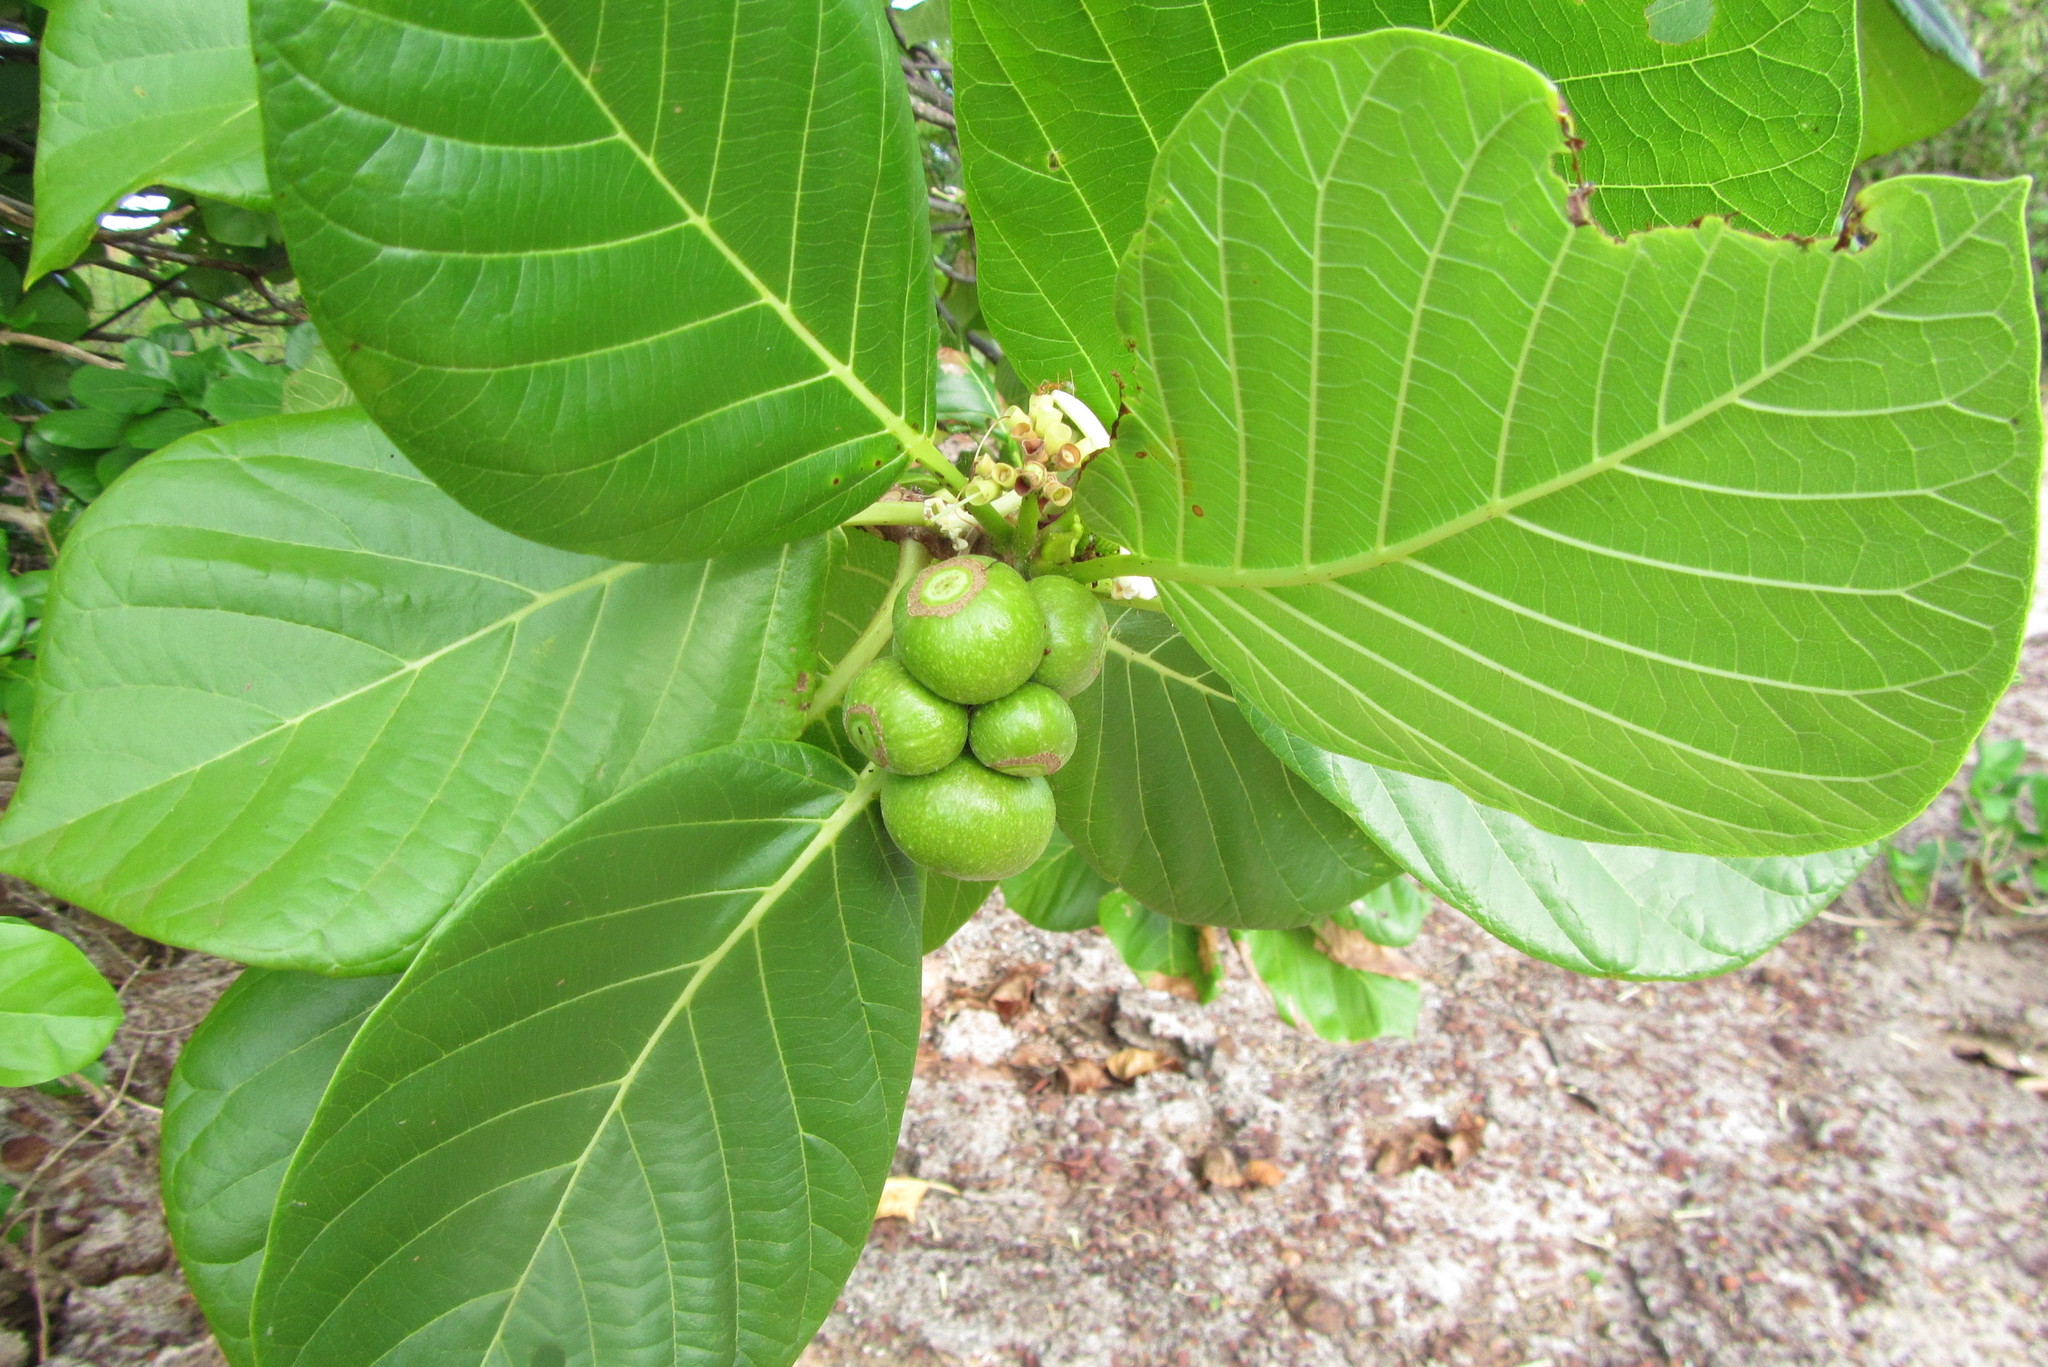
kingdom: Plantae
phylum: Tracheophyta
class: Magnoliopsida
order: Gentianales
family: Rubiaceae
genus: Guettarda
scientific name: Guettarda speciosa
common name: Sea randa
